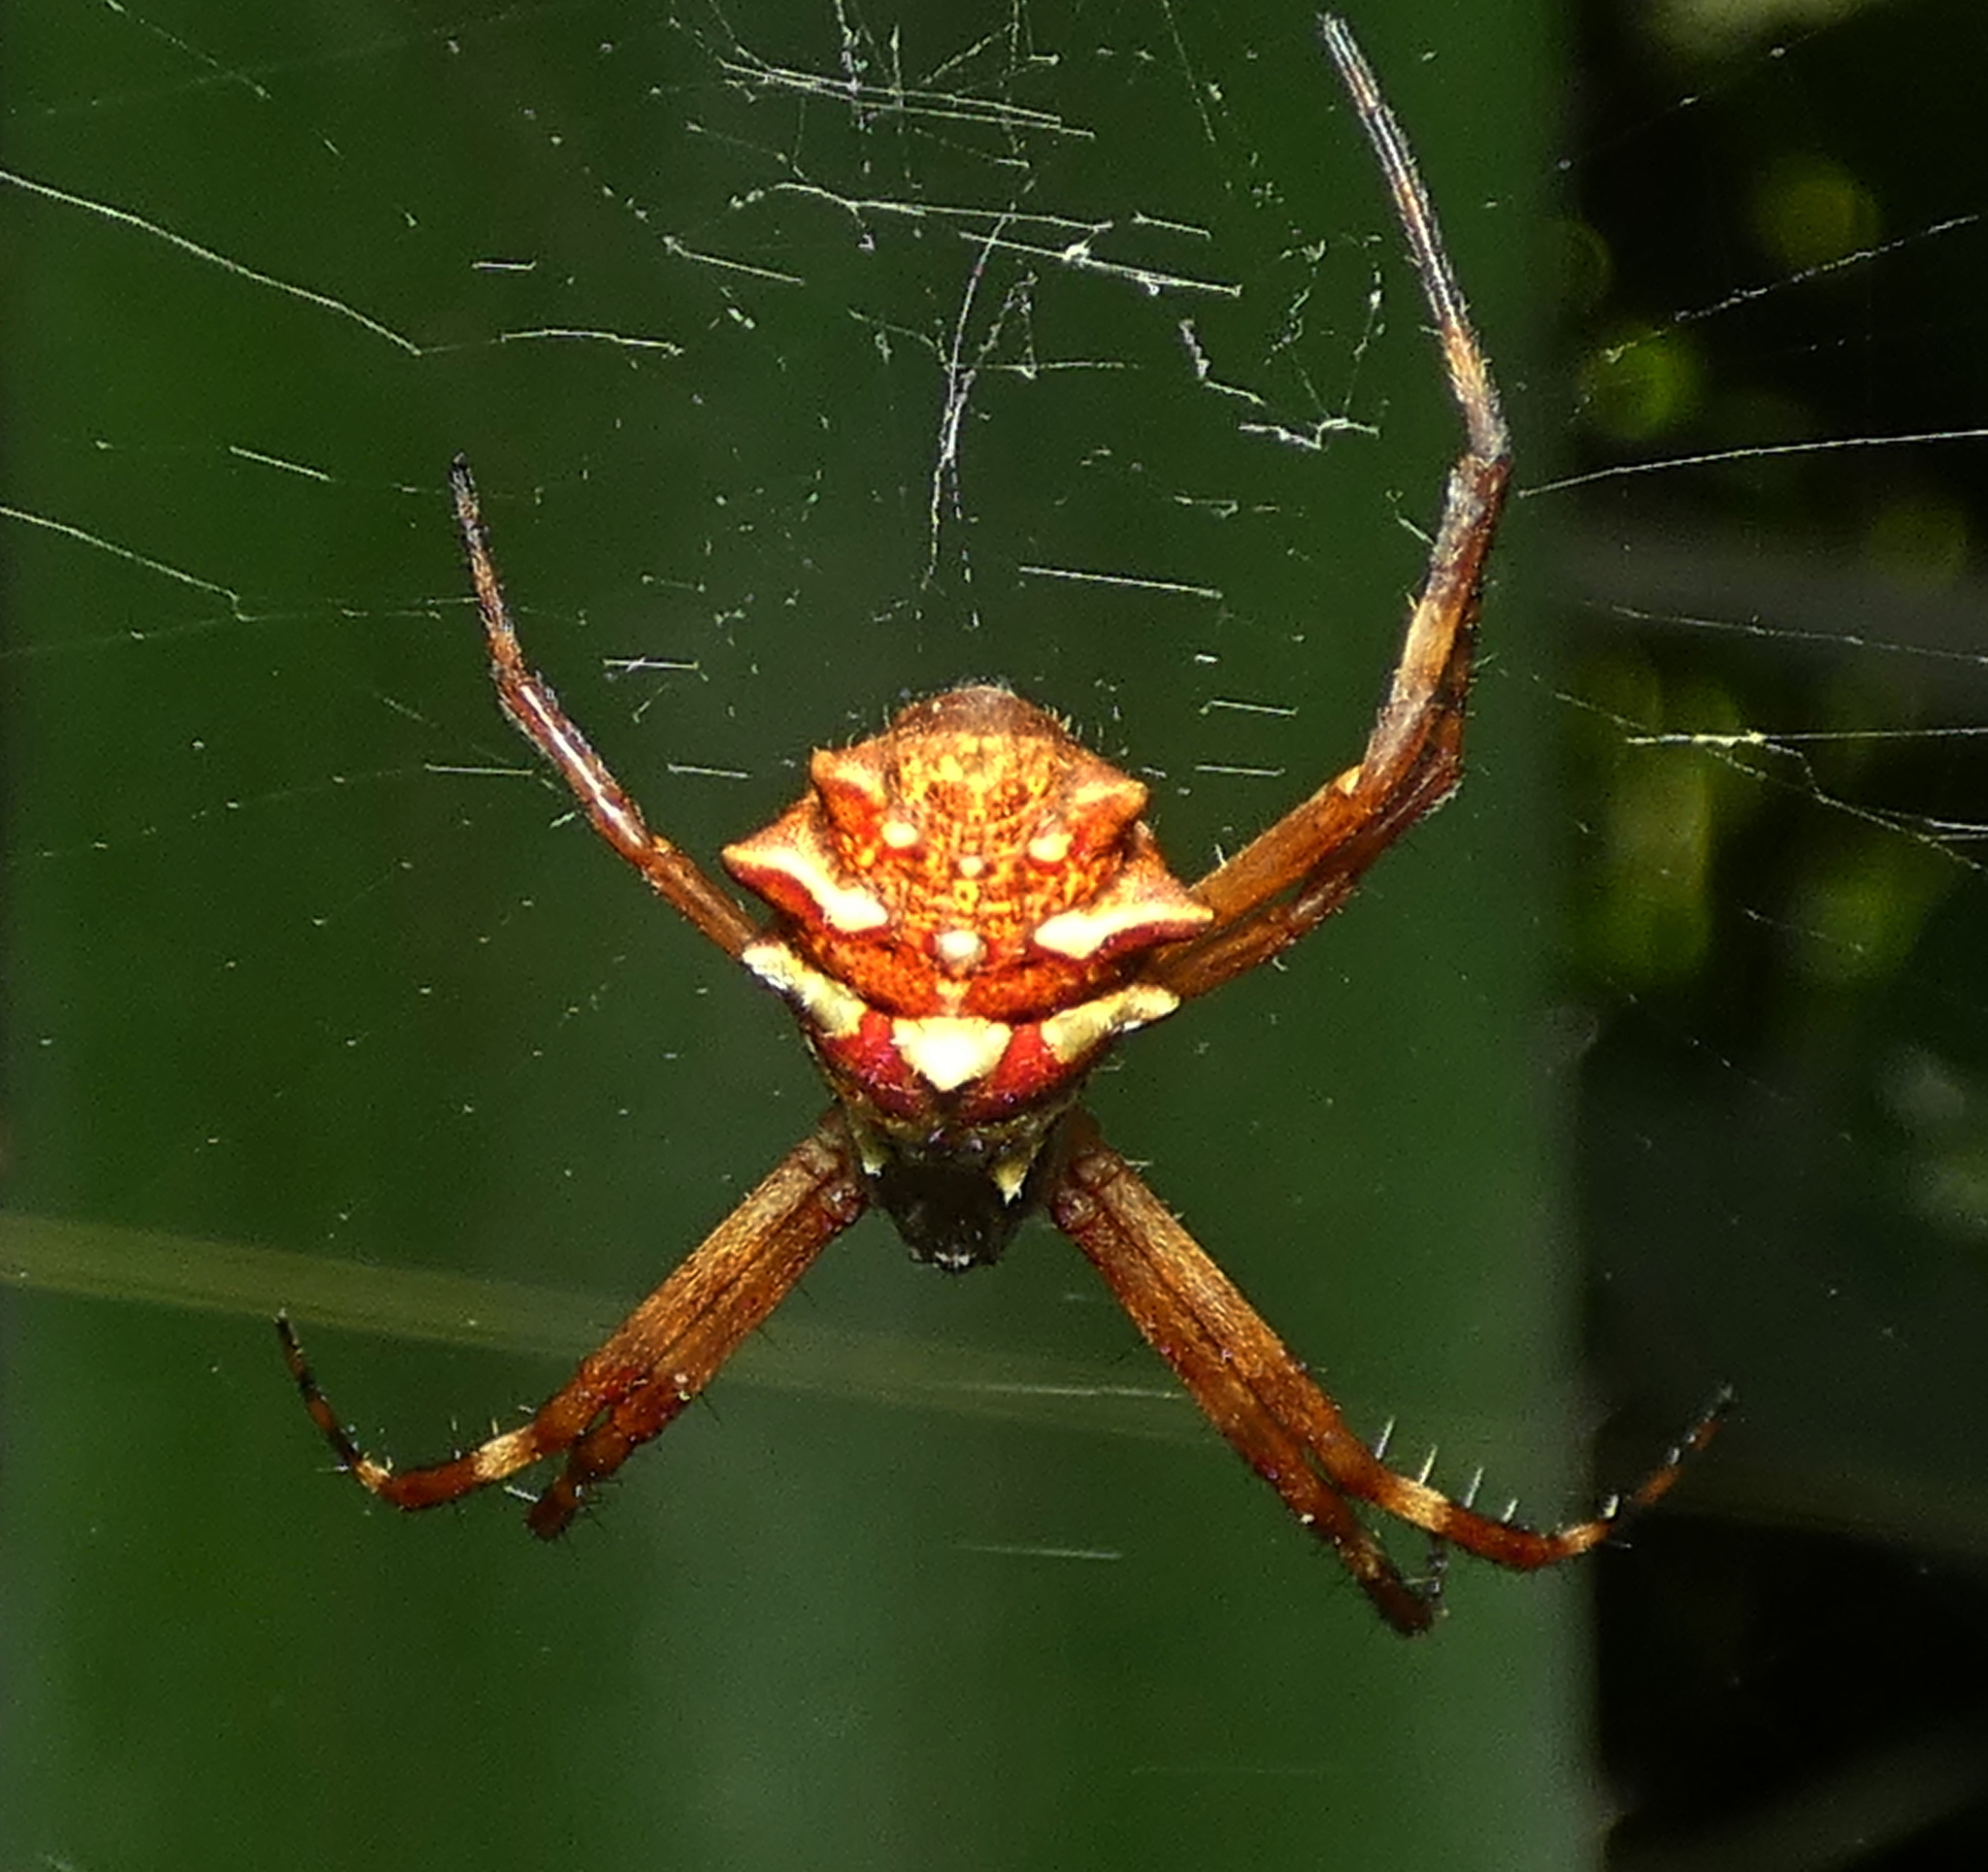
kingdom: Animalia
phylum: Arthropoda
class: Arachnida
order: Araneae
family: Araneidae
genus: Argiope
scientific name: Argiope argentata
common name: Orb weavers
